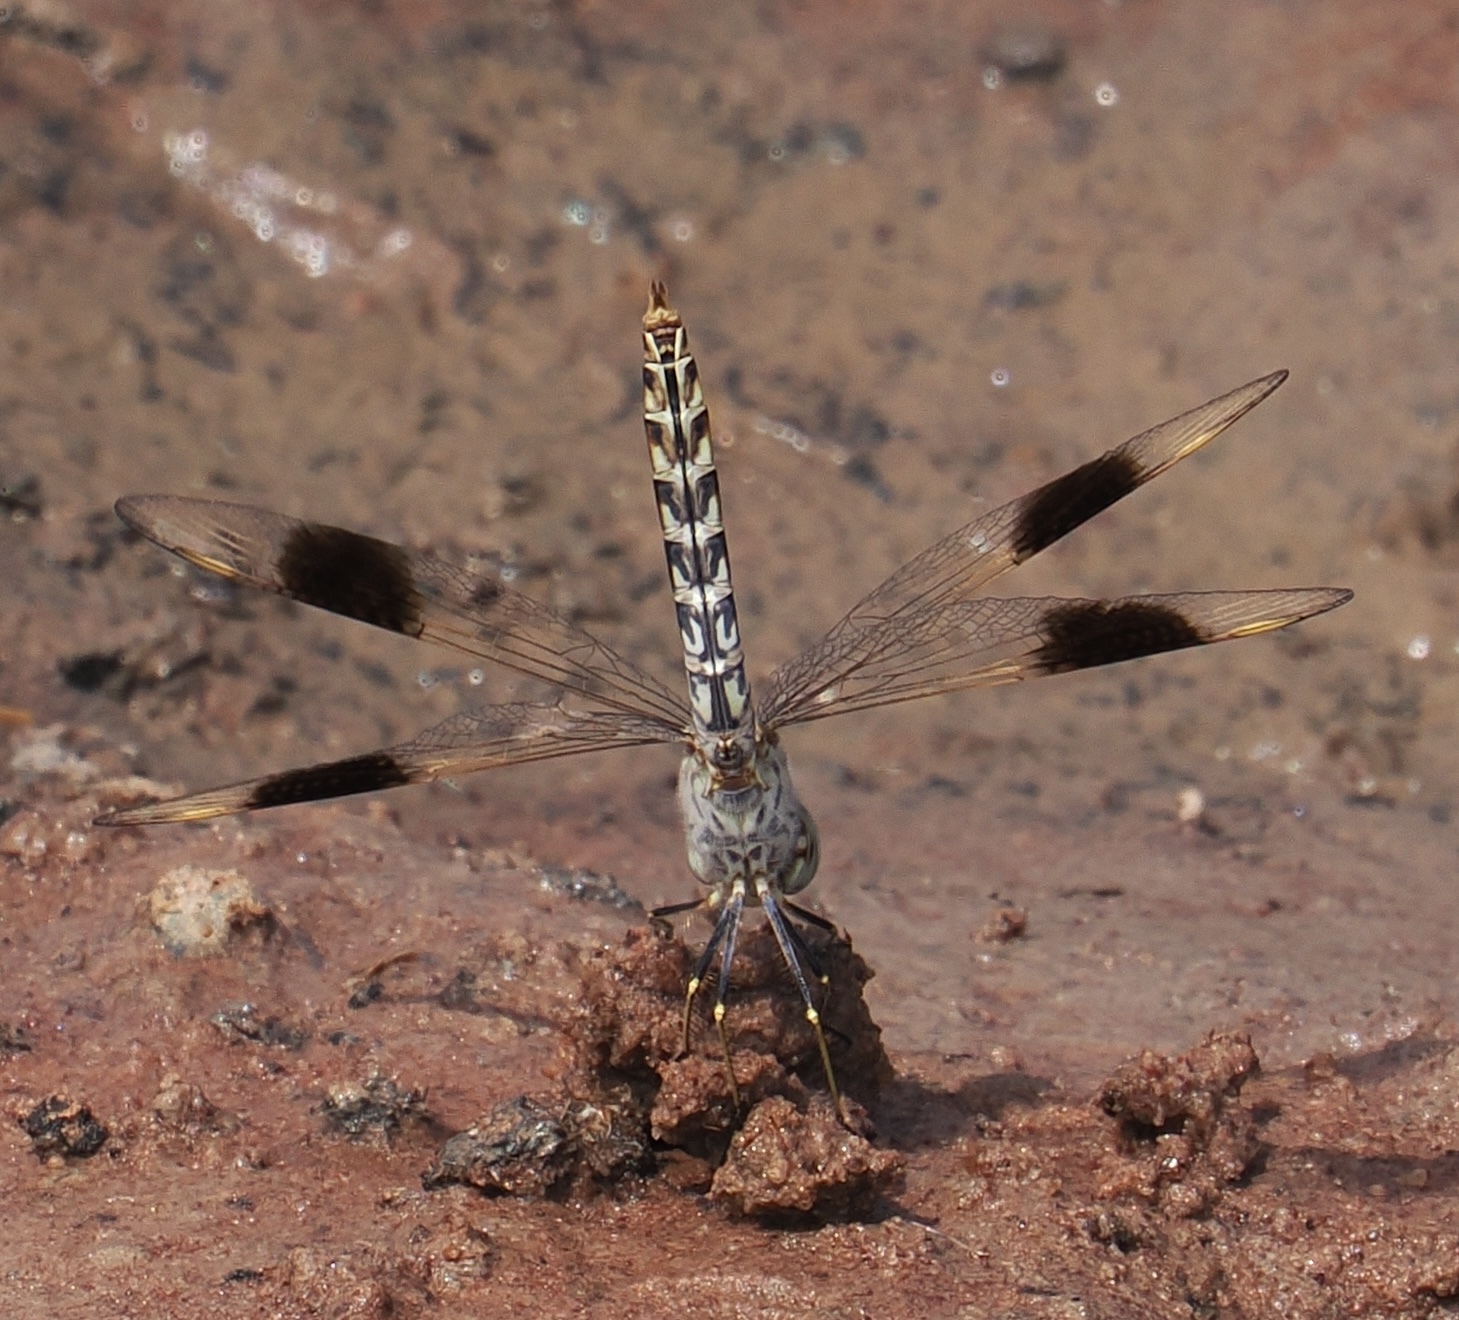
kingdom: Animalia
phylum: Arthropoda
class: Insecta
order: Odonata
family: Libellulidae
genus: Brachythemis
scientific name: Brachythemis impartita
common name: Banded groundling
